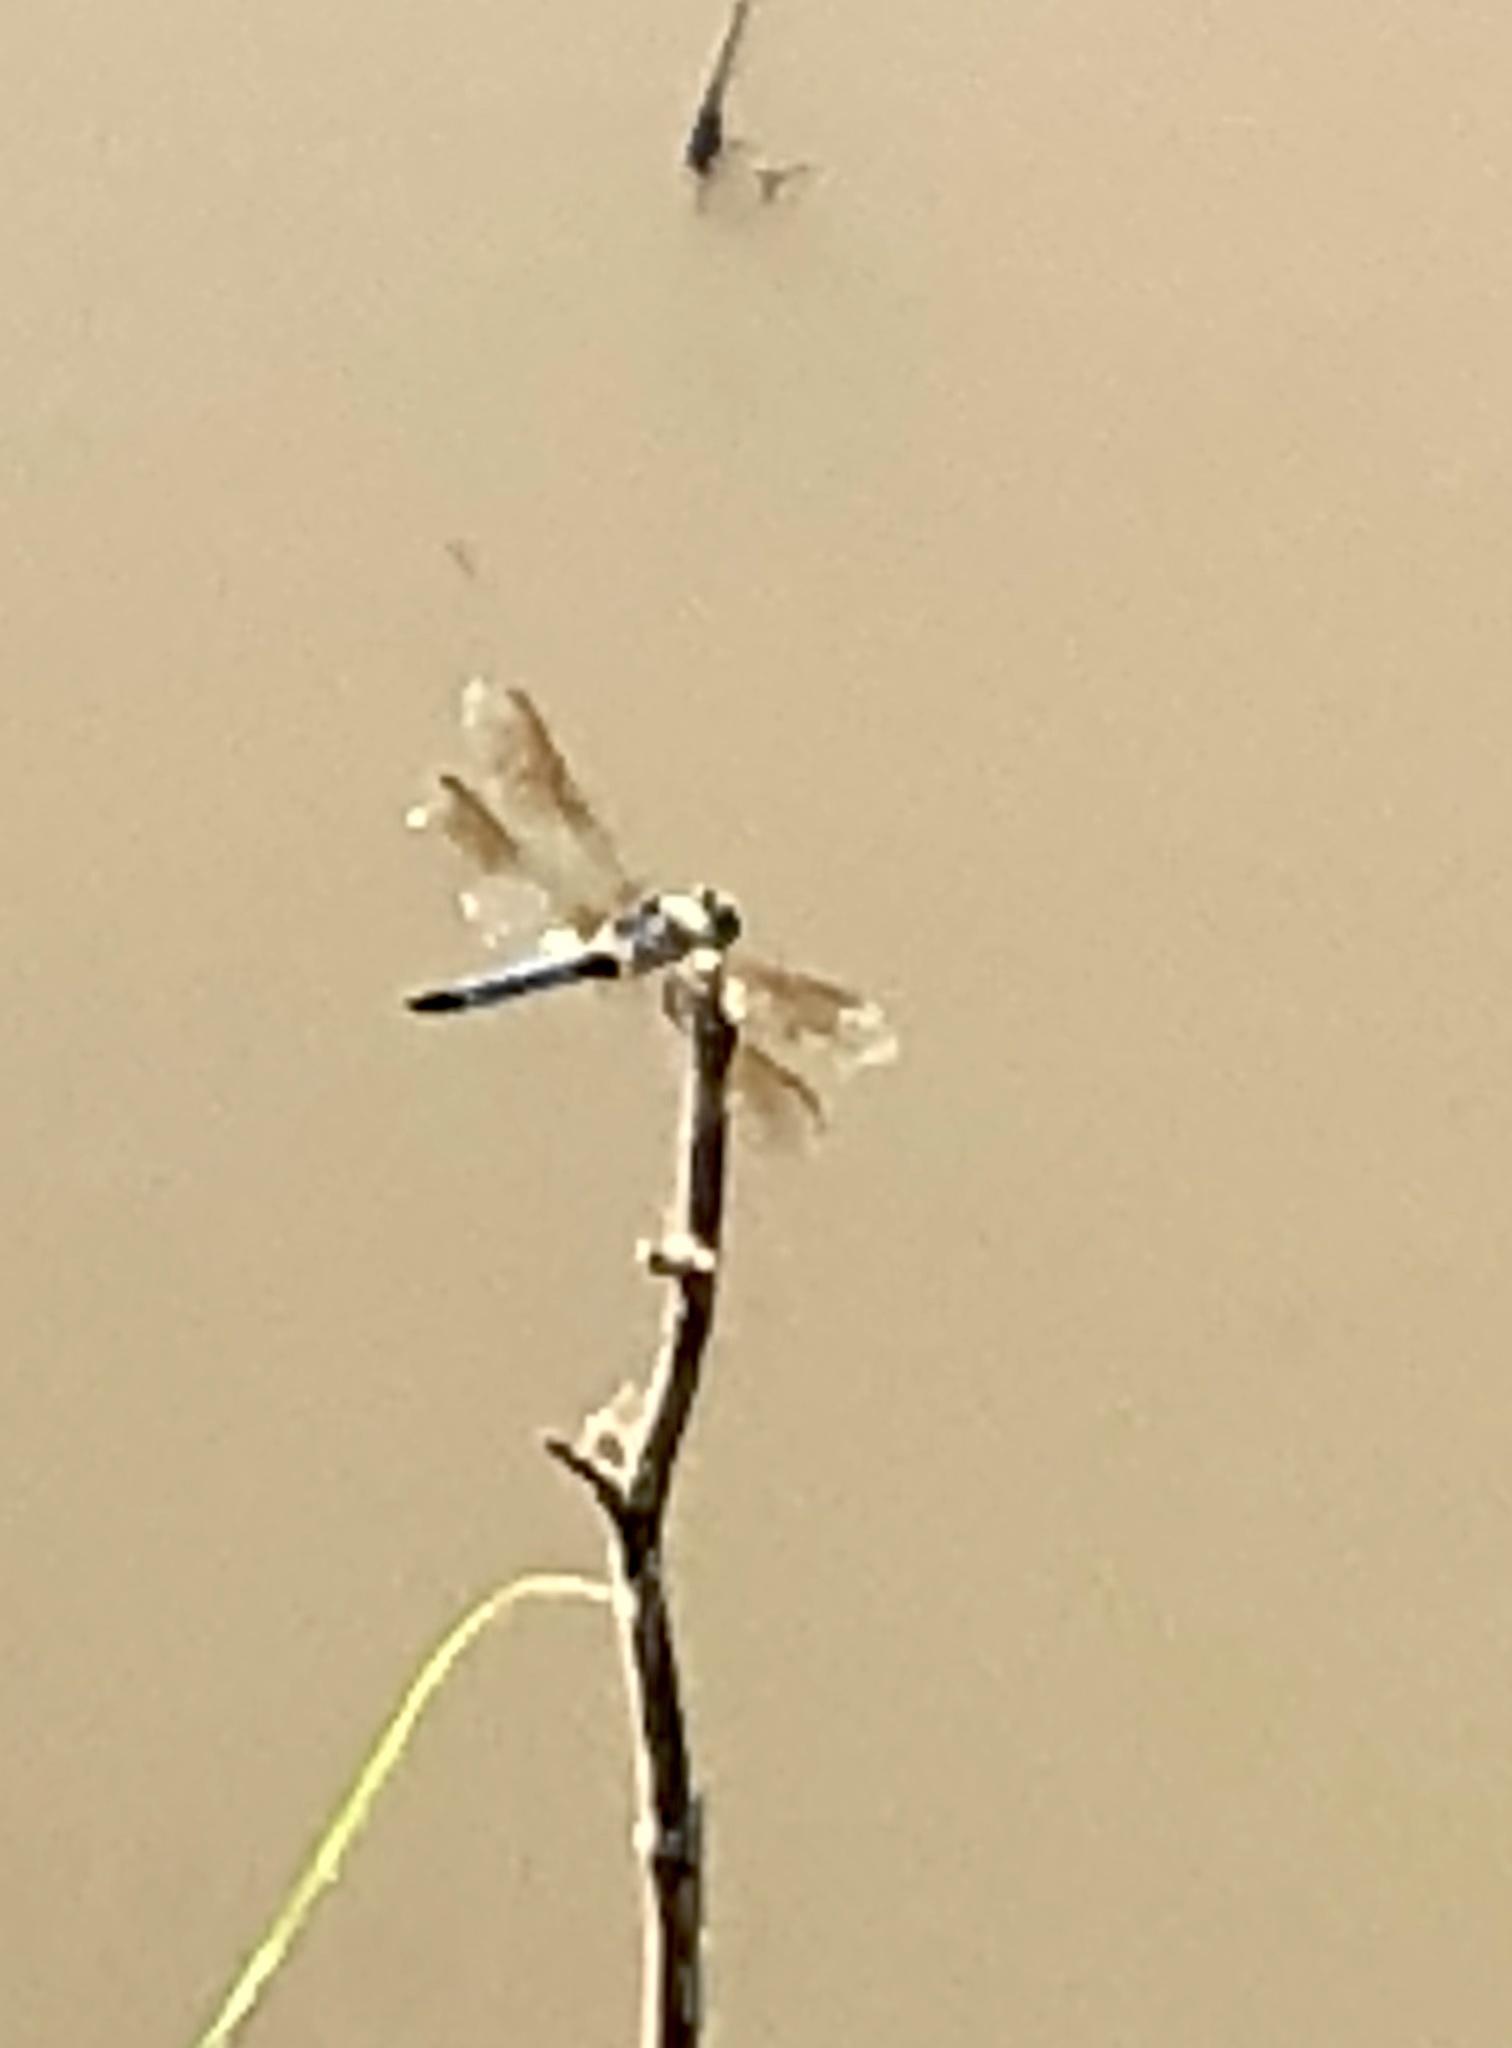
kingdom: Animalia
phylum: Arthropoda
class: Insecta
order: Odonata
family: Libellulidae
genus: Pachydiplax
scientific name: Pachydiplax longipennis
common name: Blue dasher
